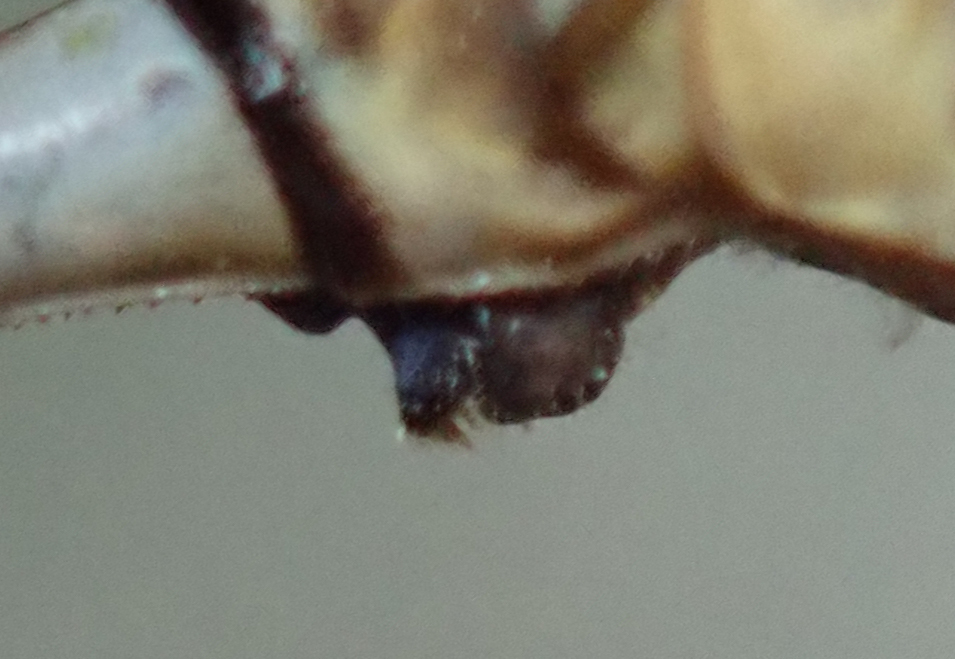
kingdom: Animalia
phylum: Arthropoda
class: Insecta
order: Odonata
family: Gomphidae
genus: Lestinogomphus
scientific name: Lestinogomphus silkeae
